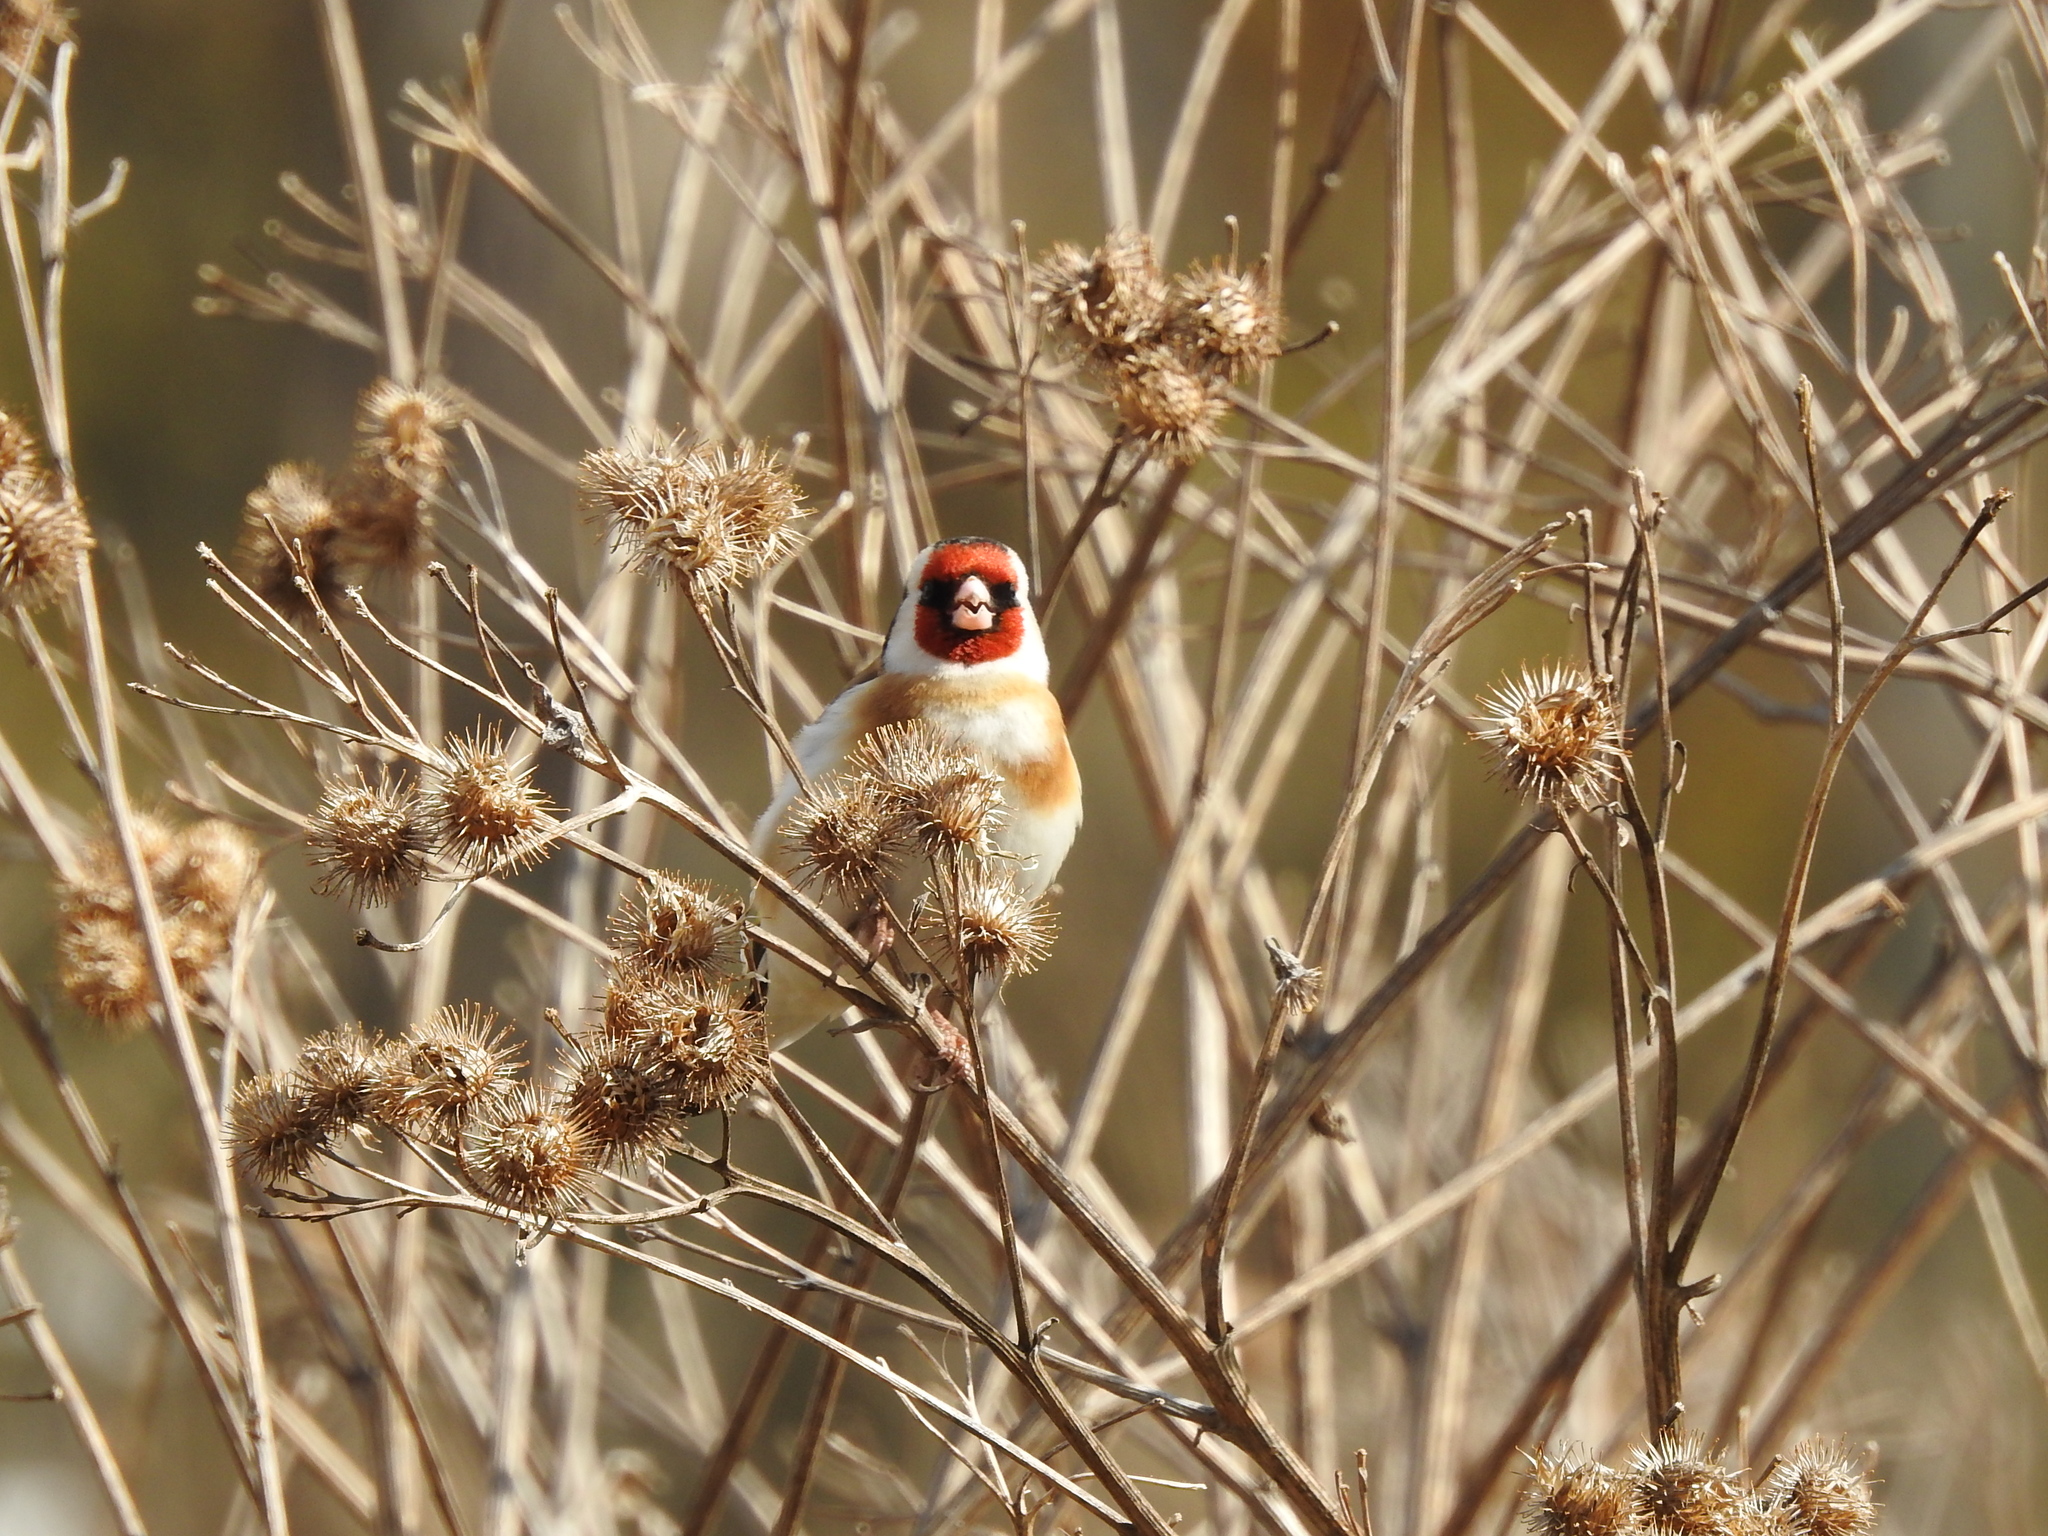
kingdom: Animalia
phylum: Chordata
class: Aves
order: Passeriformes
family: Fringillidae
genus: Carduelis
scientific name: Carduelis carduelis
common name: European goldfinch
